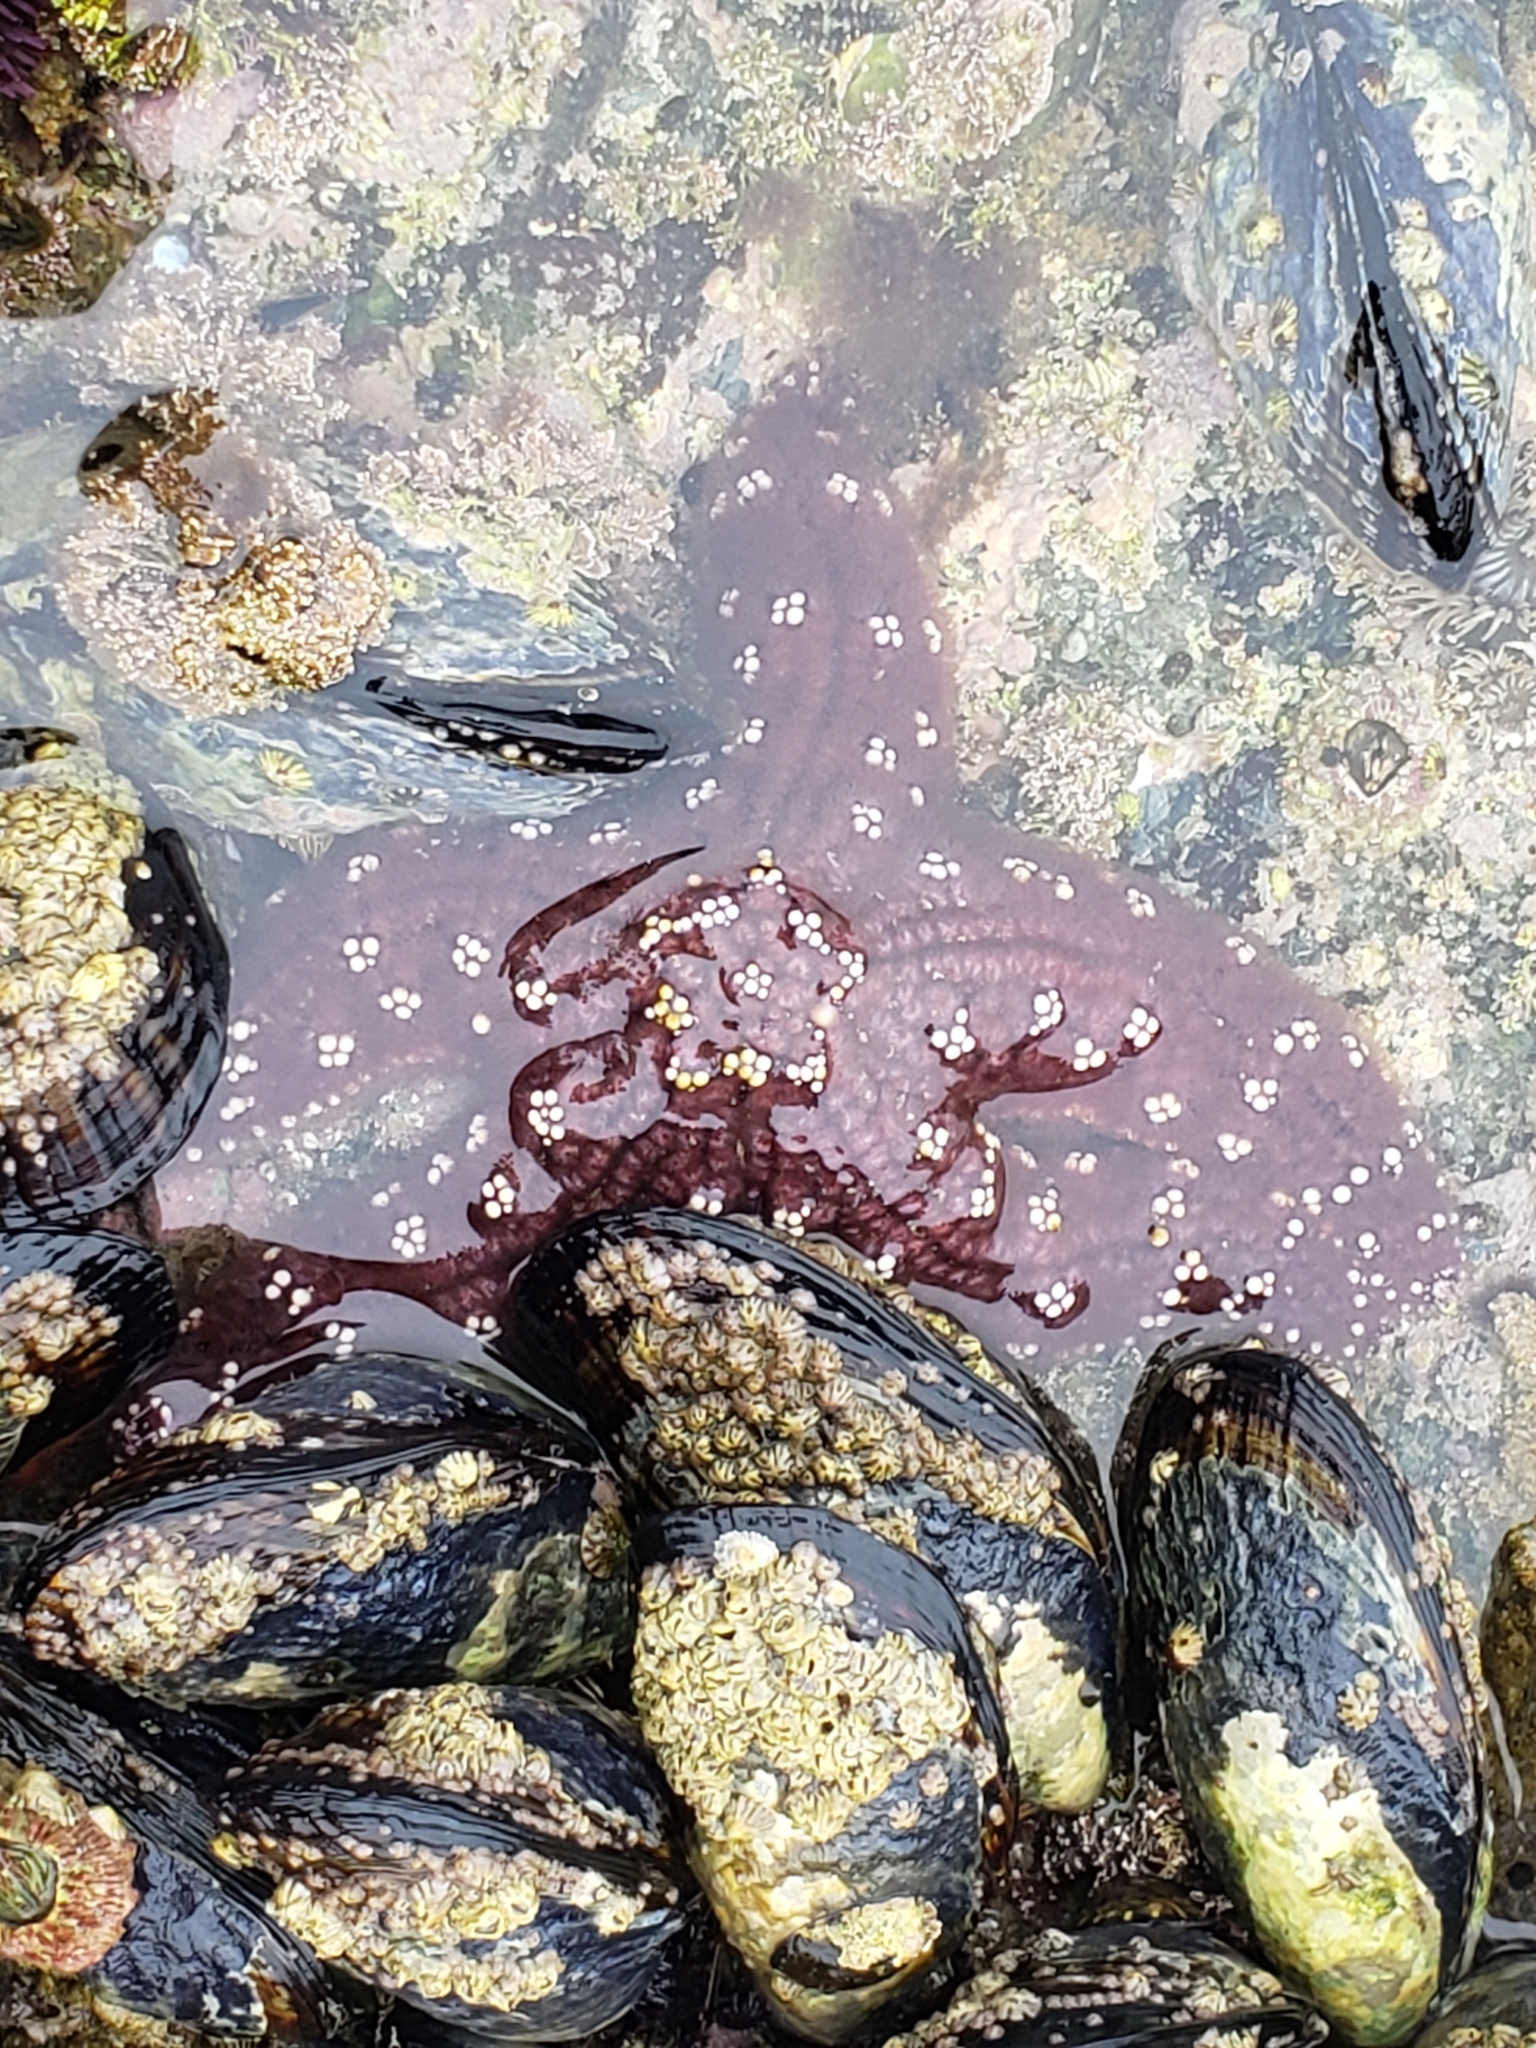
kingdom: Animalia
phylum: Echinodermata
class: Asteroidea
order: Forcipulatida
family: Asteriidae
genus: Pisaster
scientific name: Pisaster ochraceus
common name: Ochre stars
